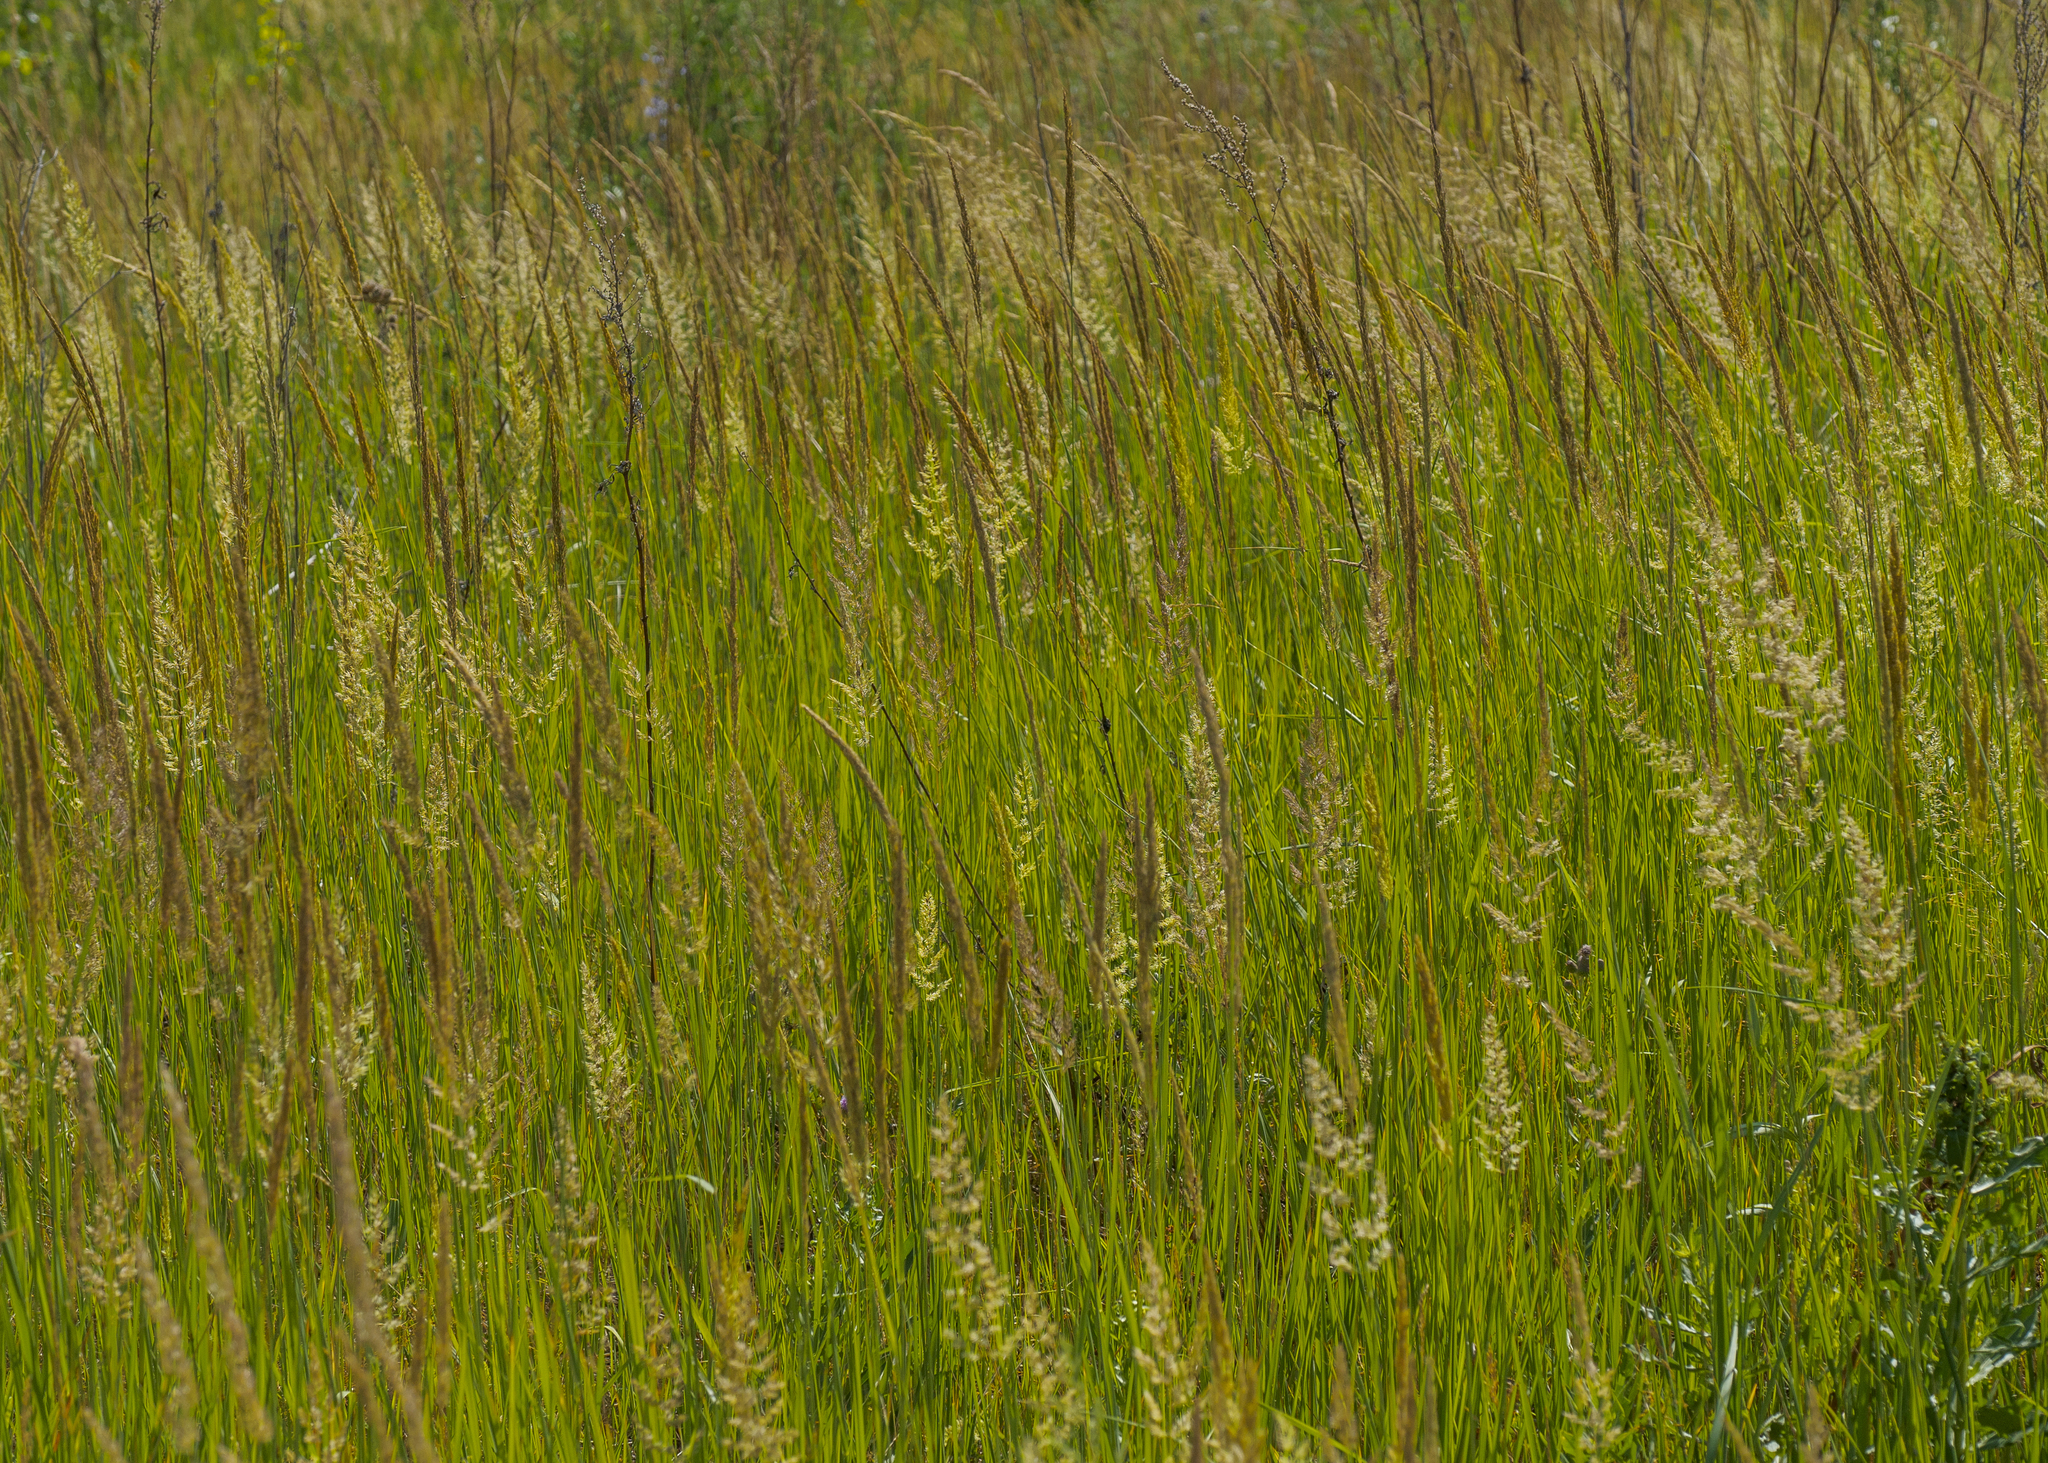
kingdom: Plantae
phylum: Tracheophyta
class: Liliopsida
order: Poales
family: Poaceae
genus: Phalaris
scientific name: Phalaris arundinacea
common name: Reed canary-grass
